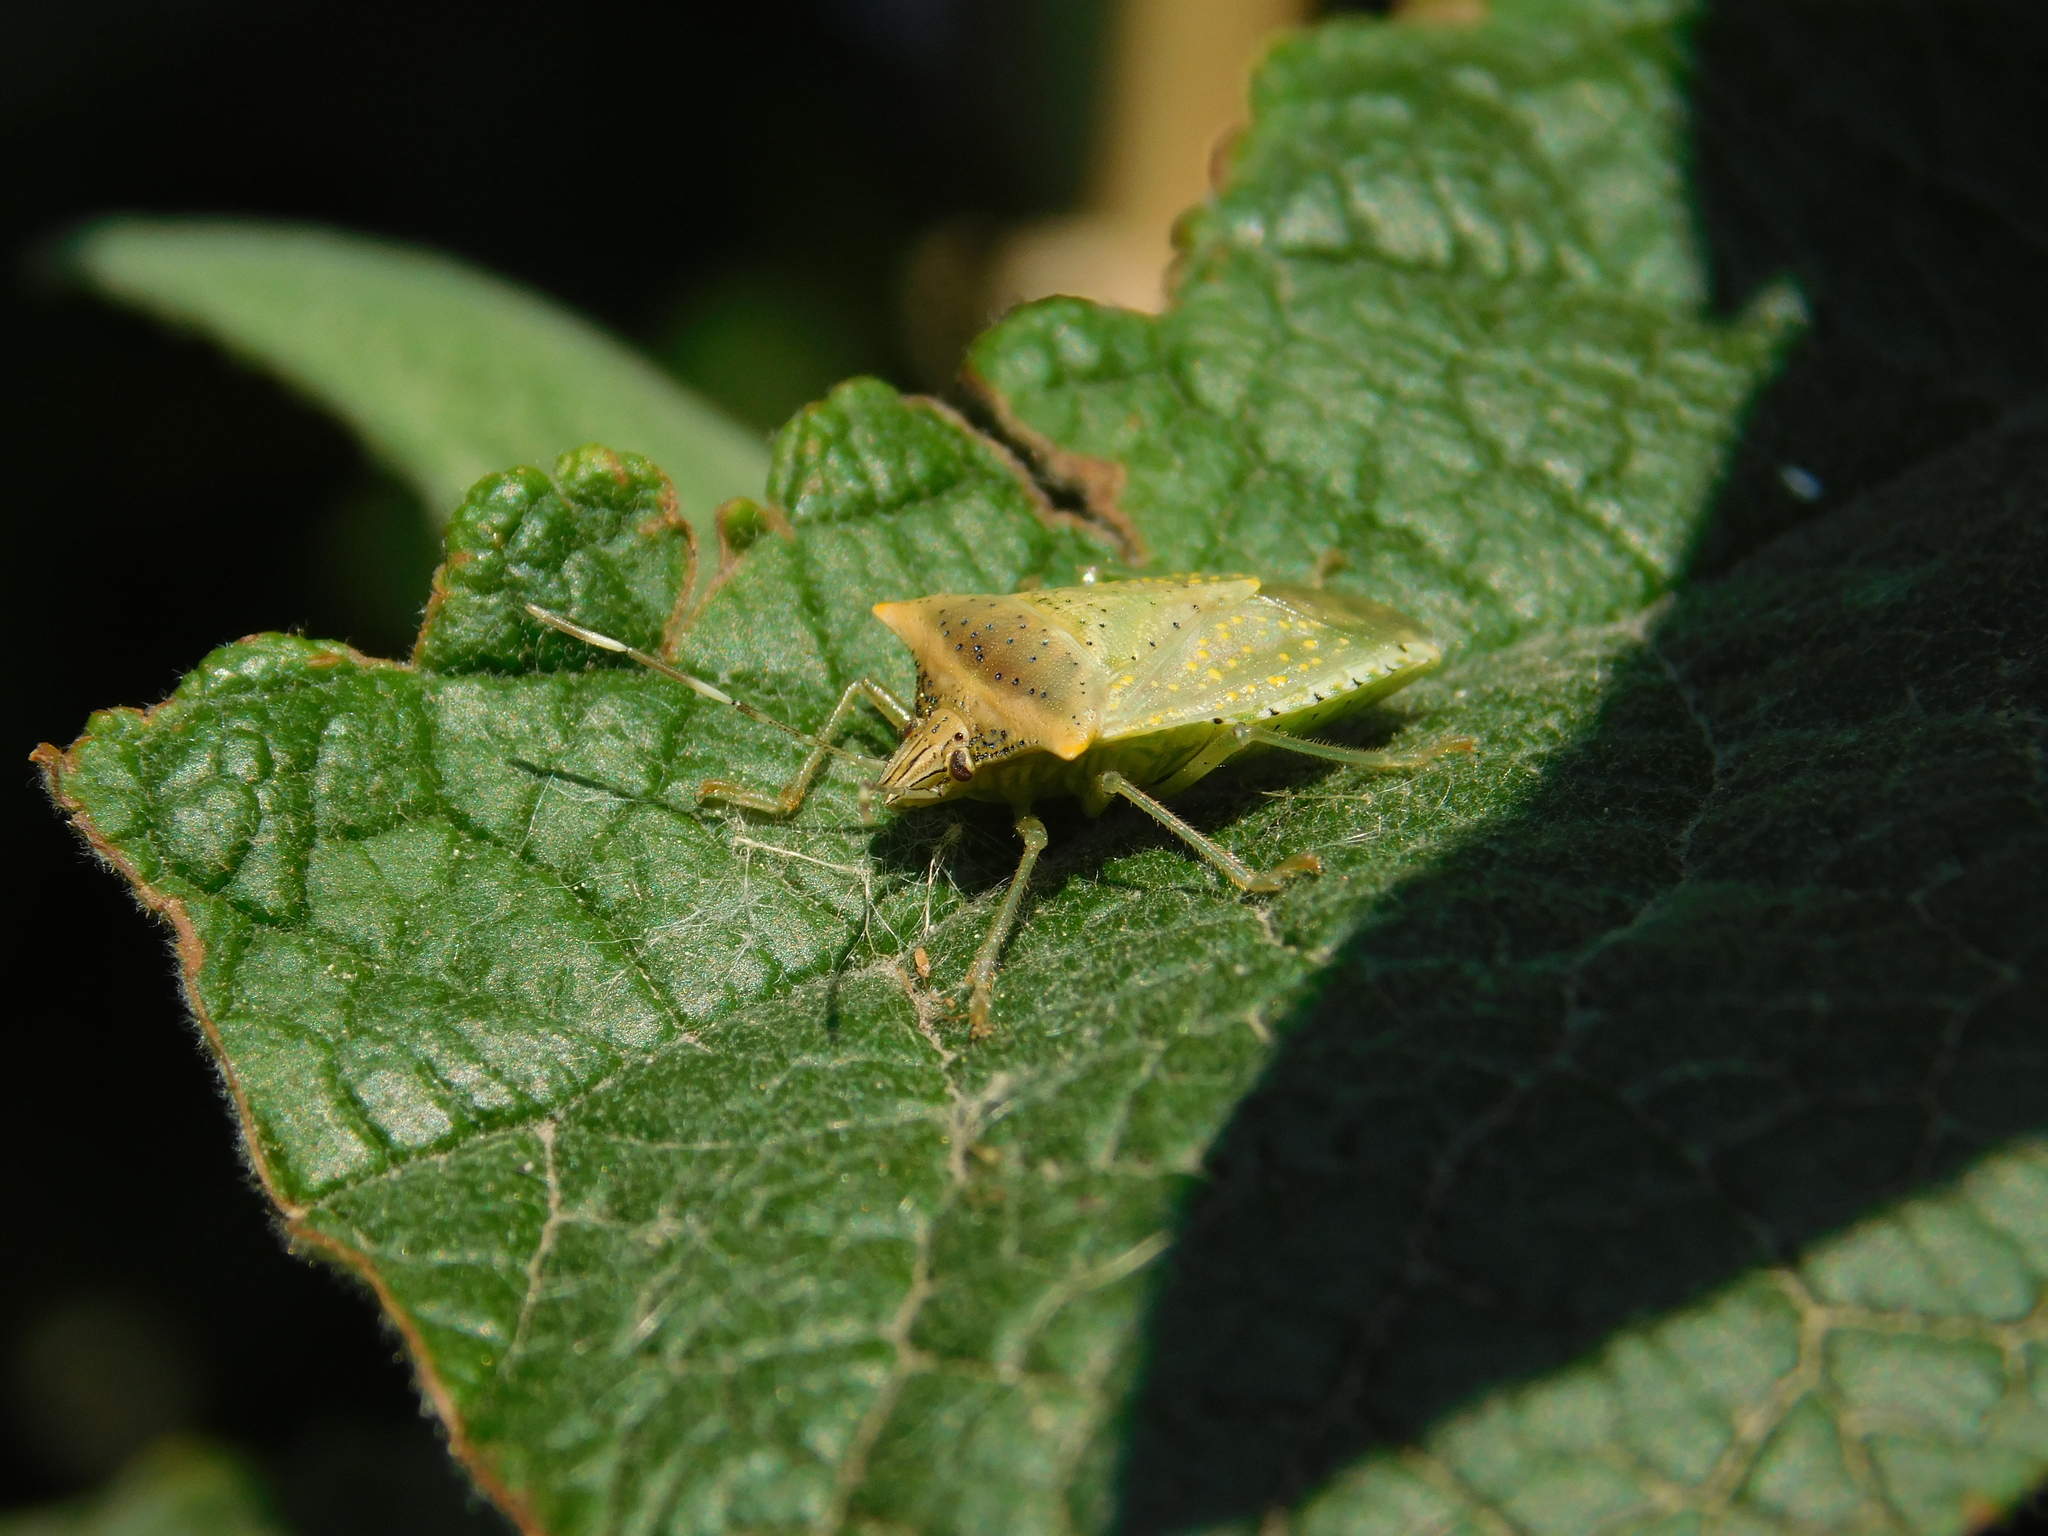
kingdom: Animalia
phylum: Arthropoda
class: Insecta
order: Hemiptera
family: Pentatomidae
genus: Arvelius
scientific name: Arvelius albopunctatus
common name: Tomato stink bug
